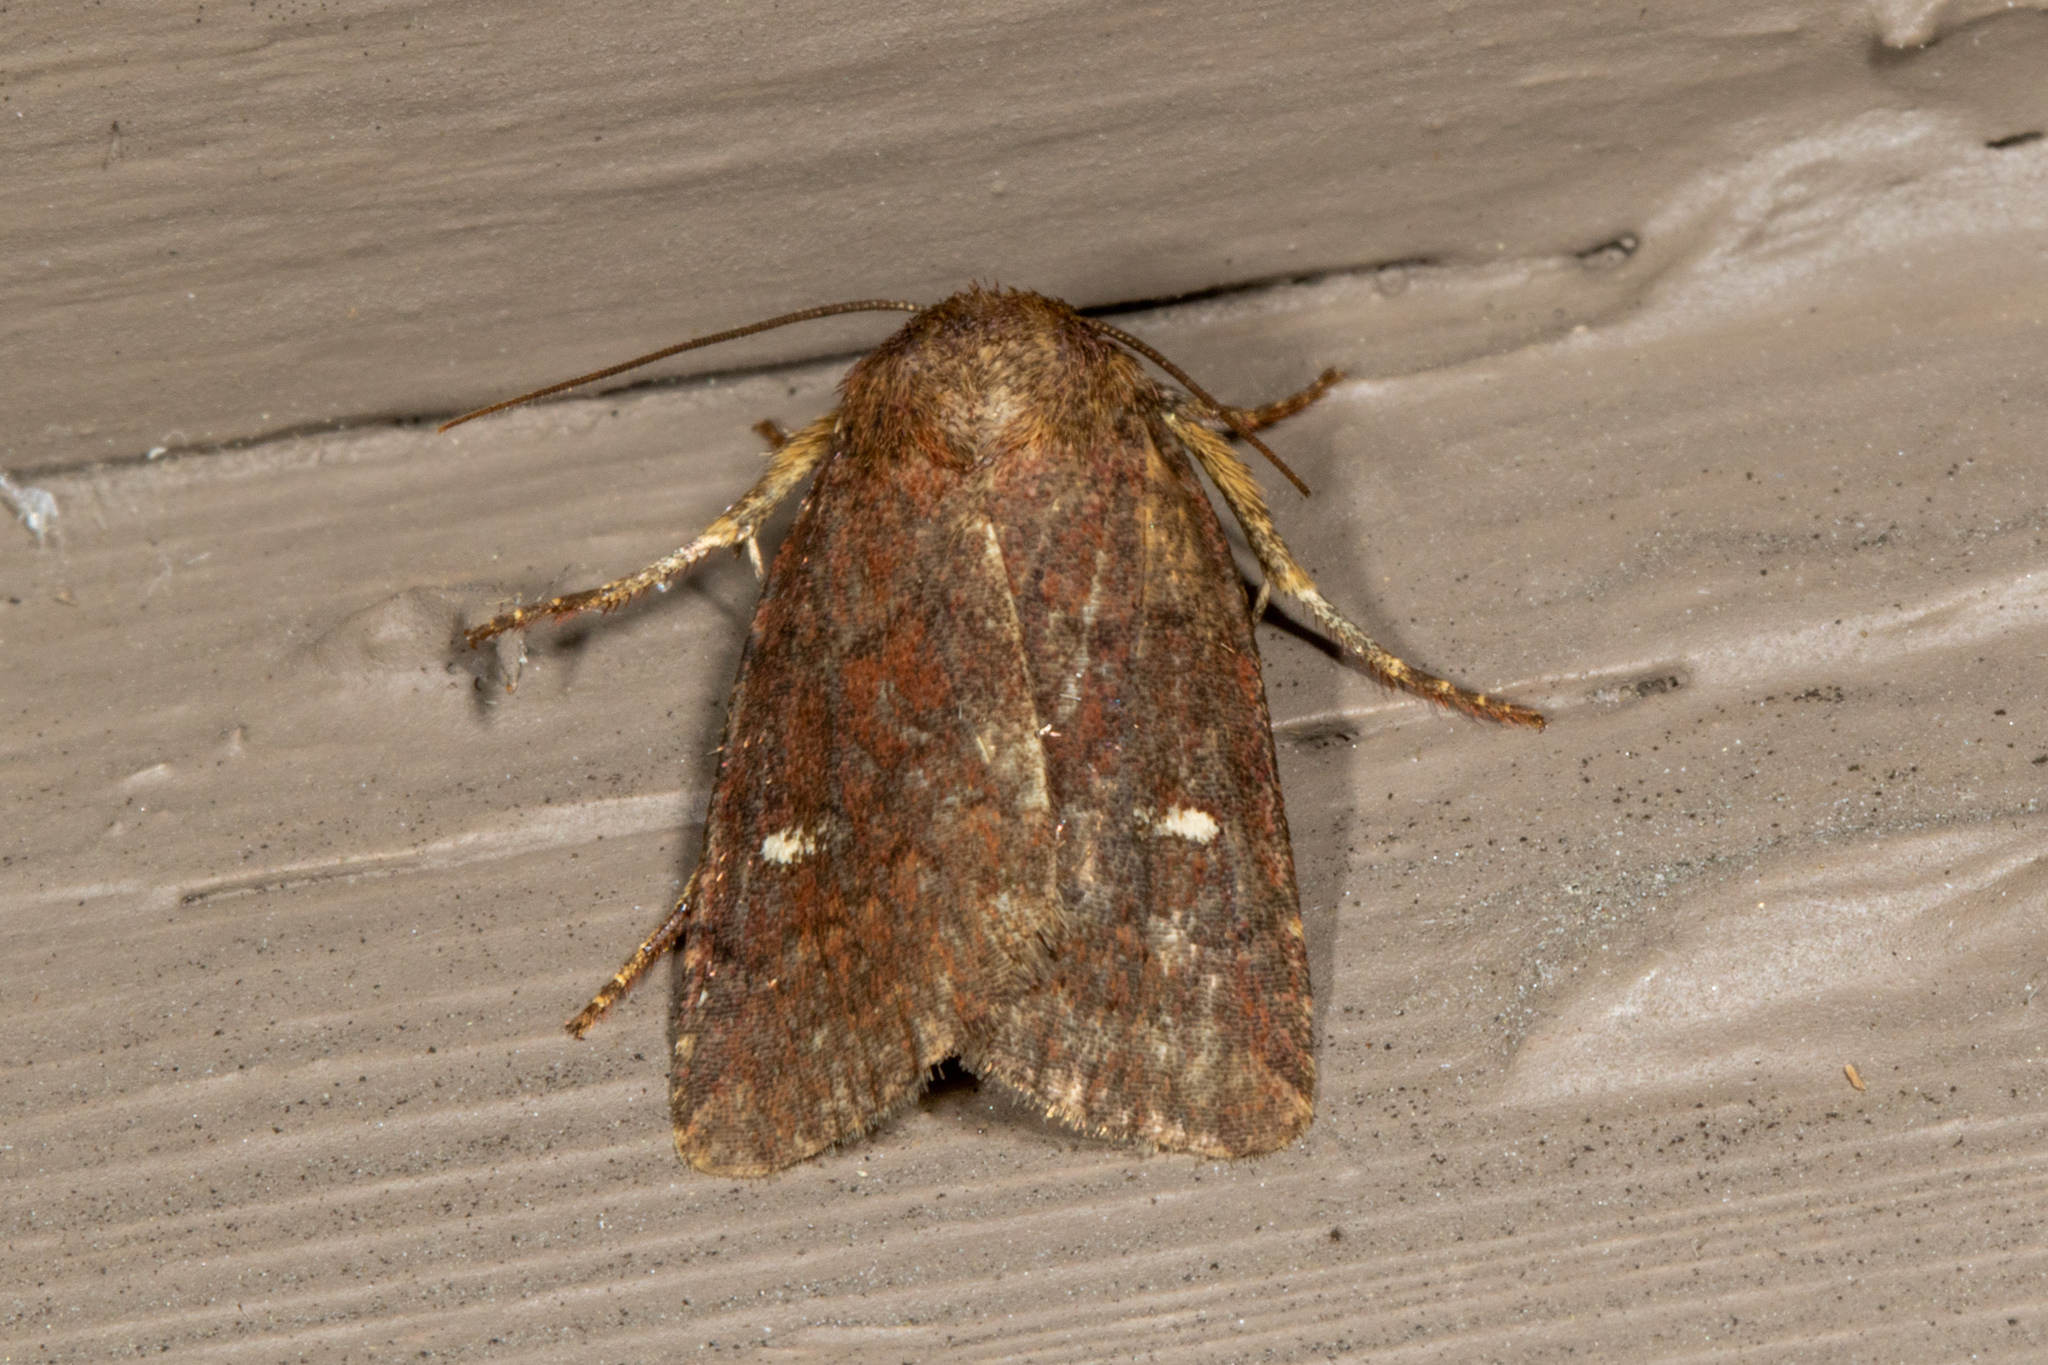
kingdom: Animalia
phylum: Arthropoda
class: Insecta
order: Lepidoptera
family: Noctuidae
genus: Pseudorthodes
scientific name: Pseudorthodes vecors
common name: Small brown quaker
